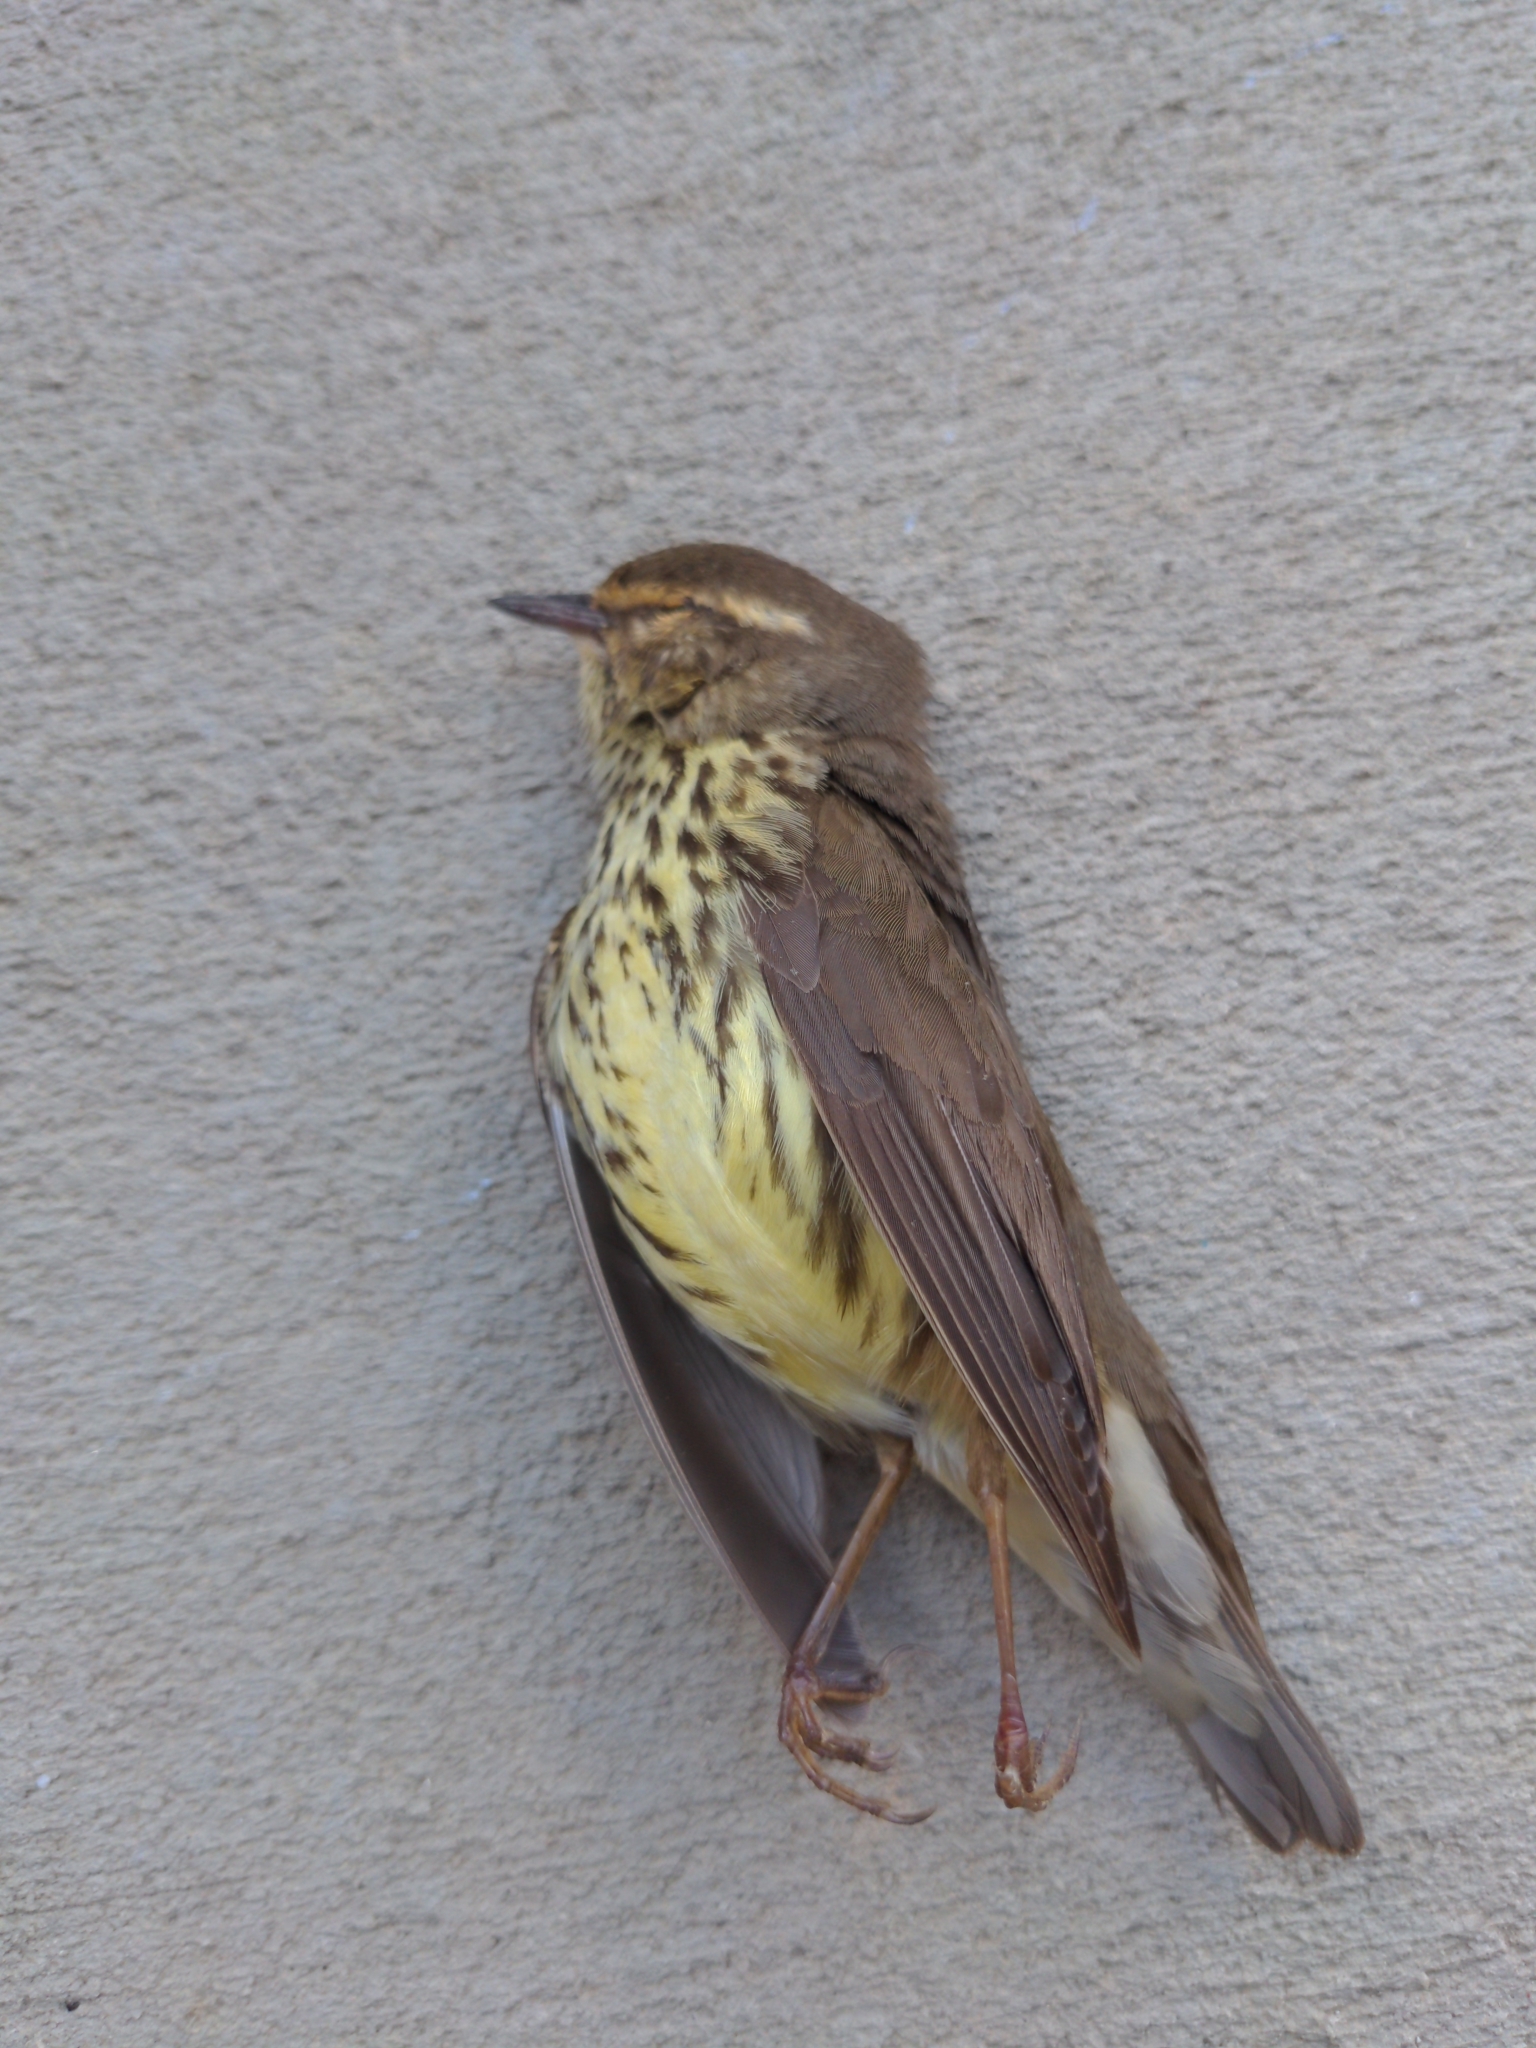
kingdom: Animalia
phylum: Chordata
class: Aves
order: Passeriformes
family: Parulidae
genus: Parkesia
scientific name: Parkesia noveboracensis
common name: Northern waterthrush
